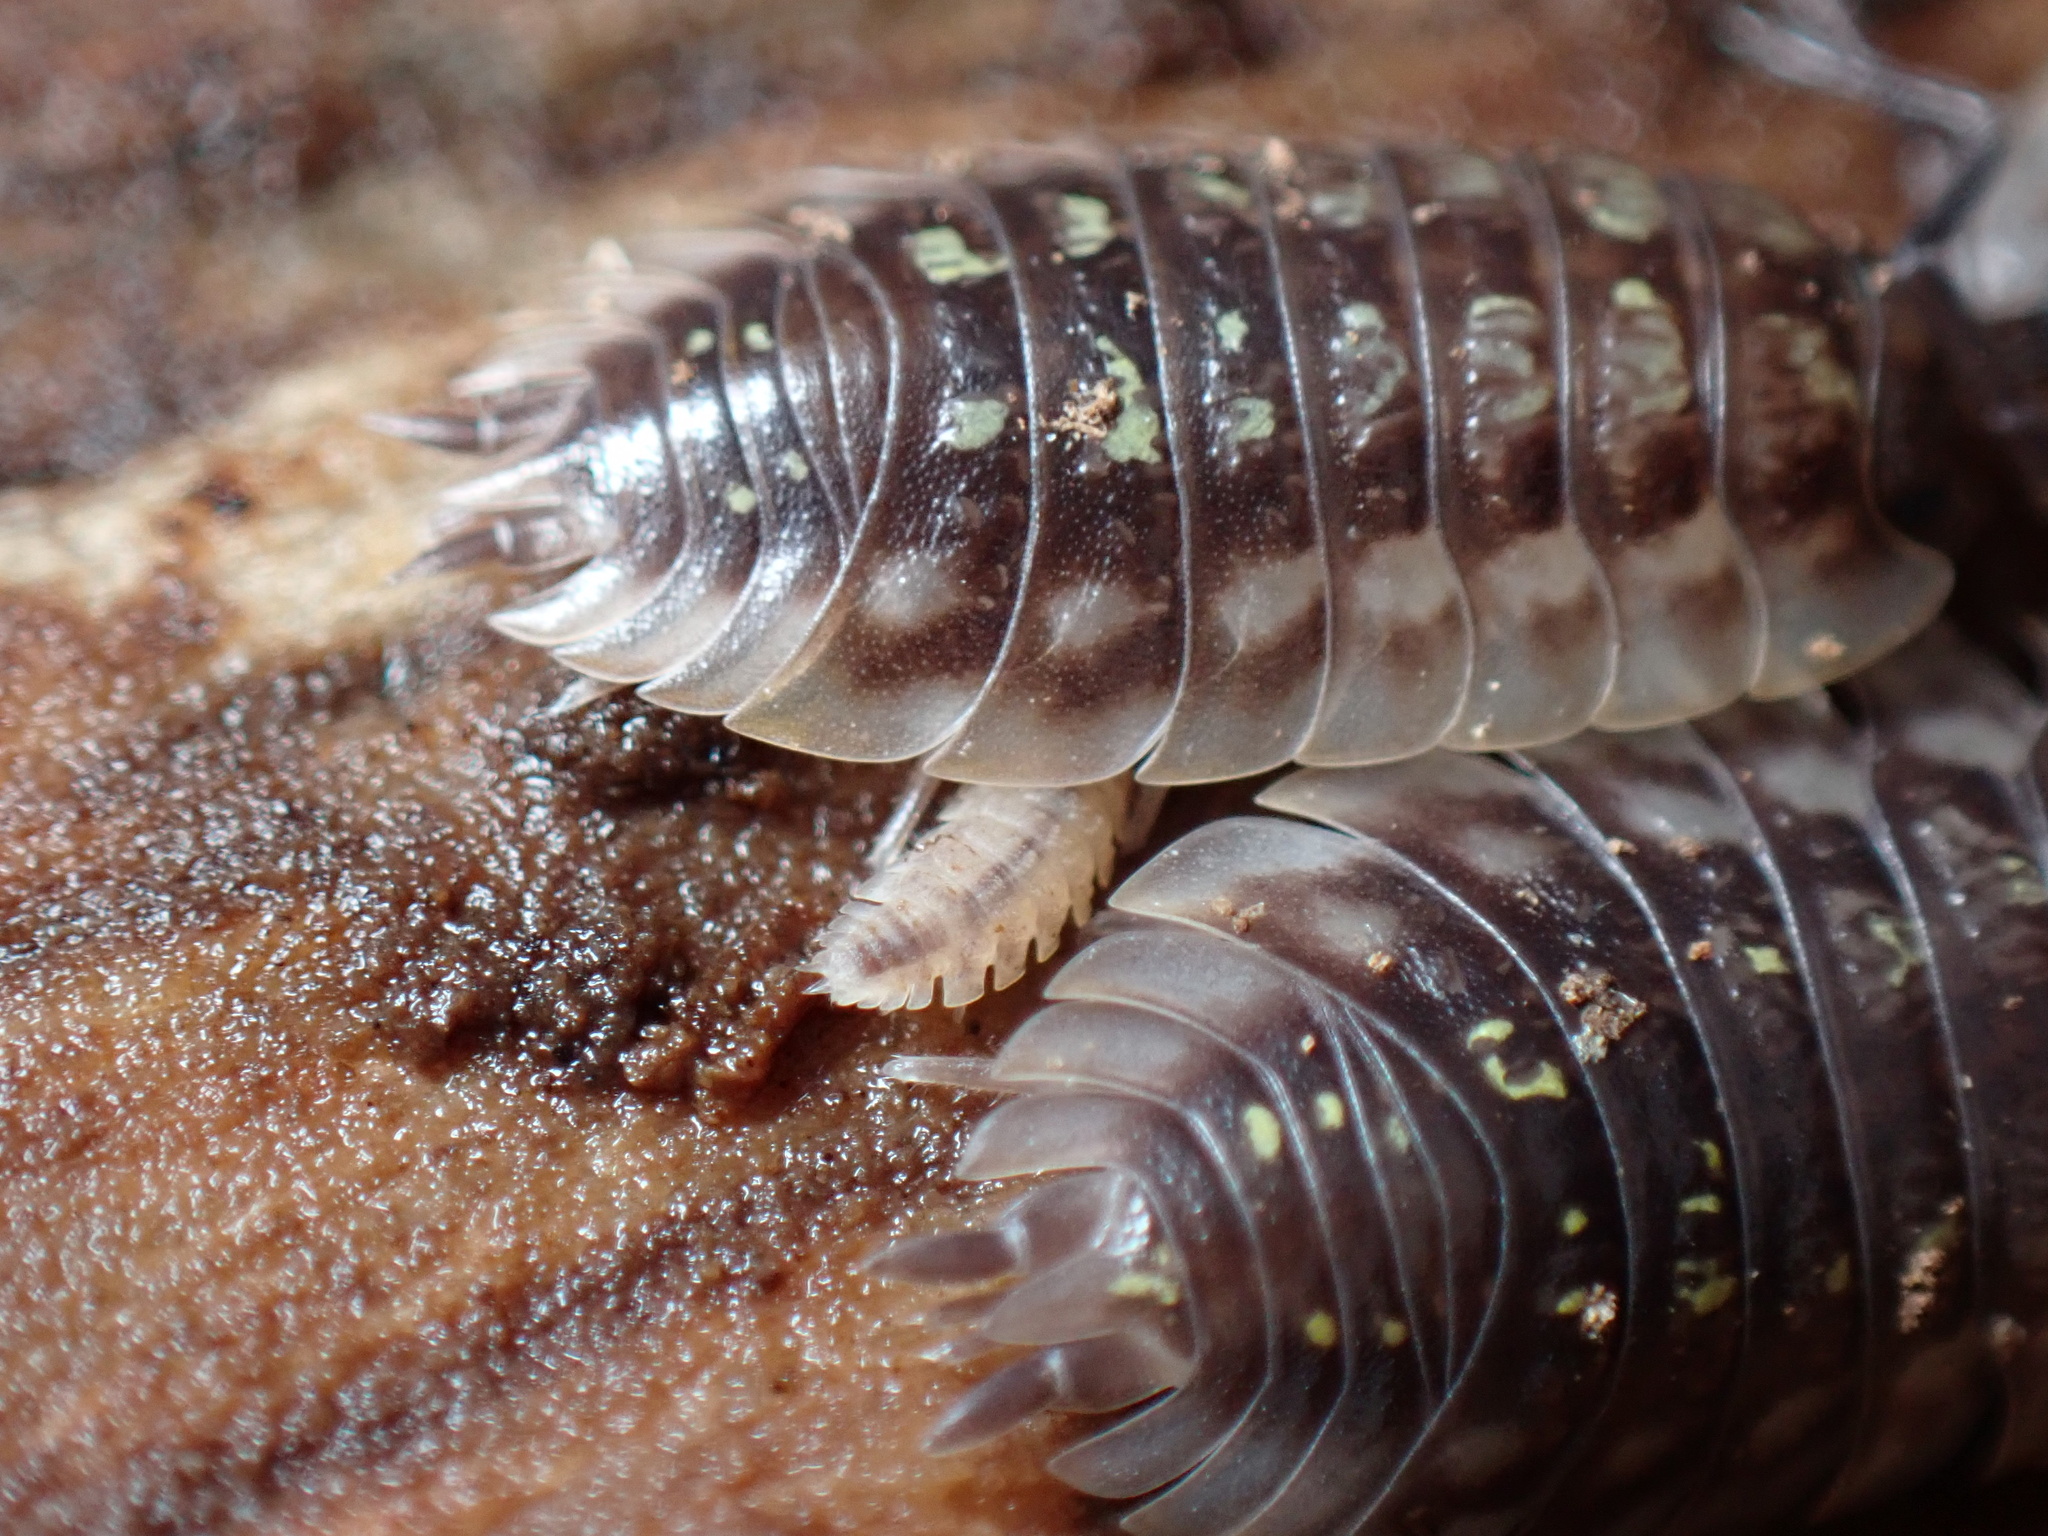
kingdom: Animalia
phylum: Arthropoda
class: Malacostraca
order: Isopoda
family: Trichoniscidae
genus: Haplophthalmus
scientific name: Haplophthalmus danicus
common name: Pillbug
